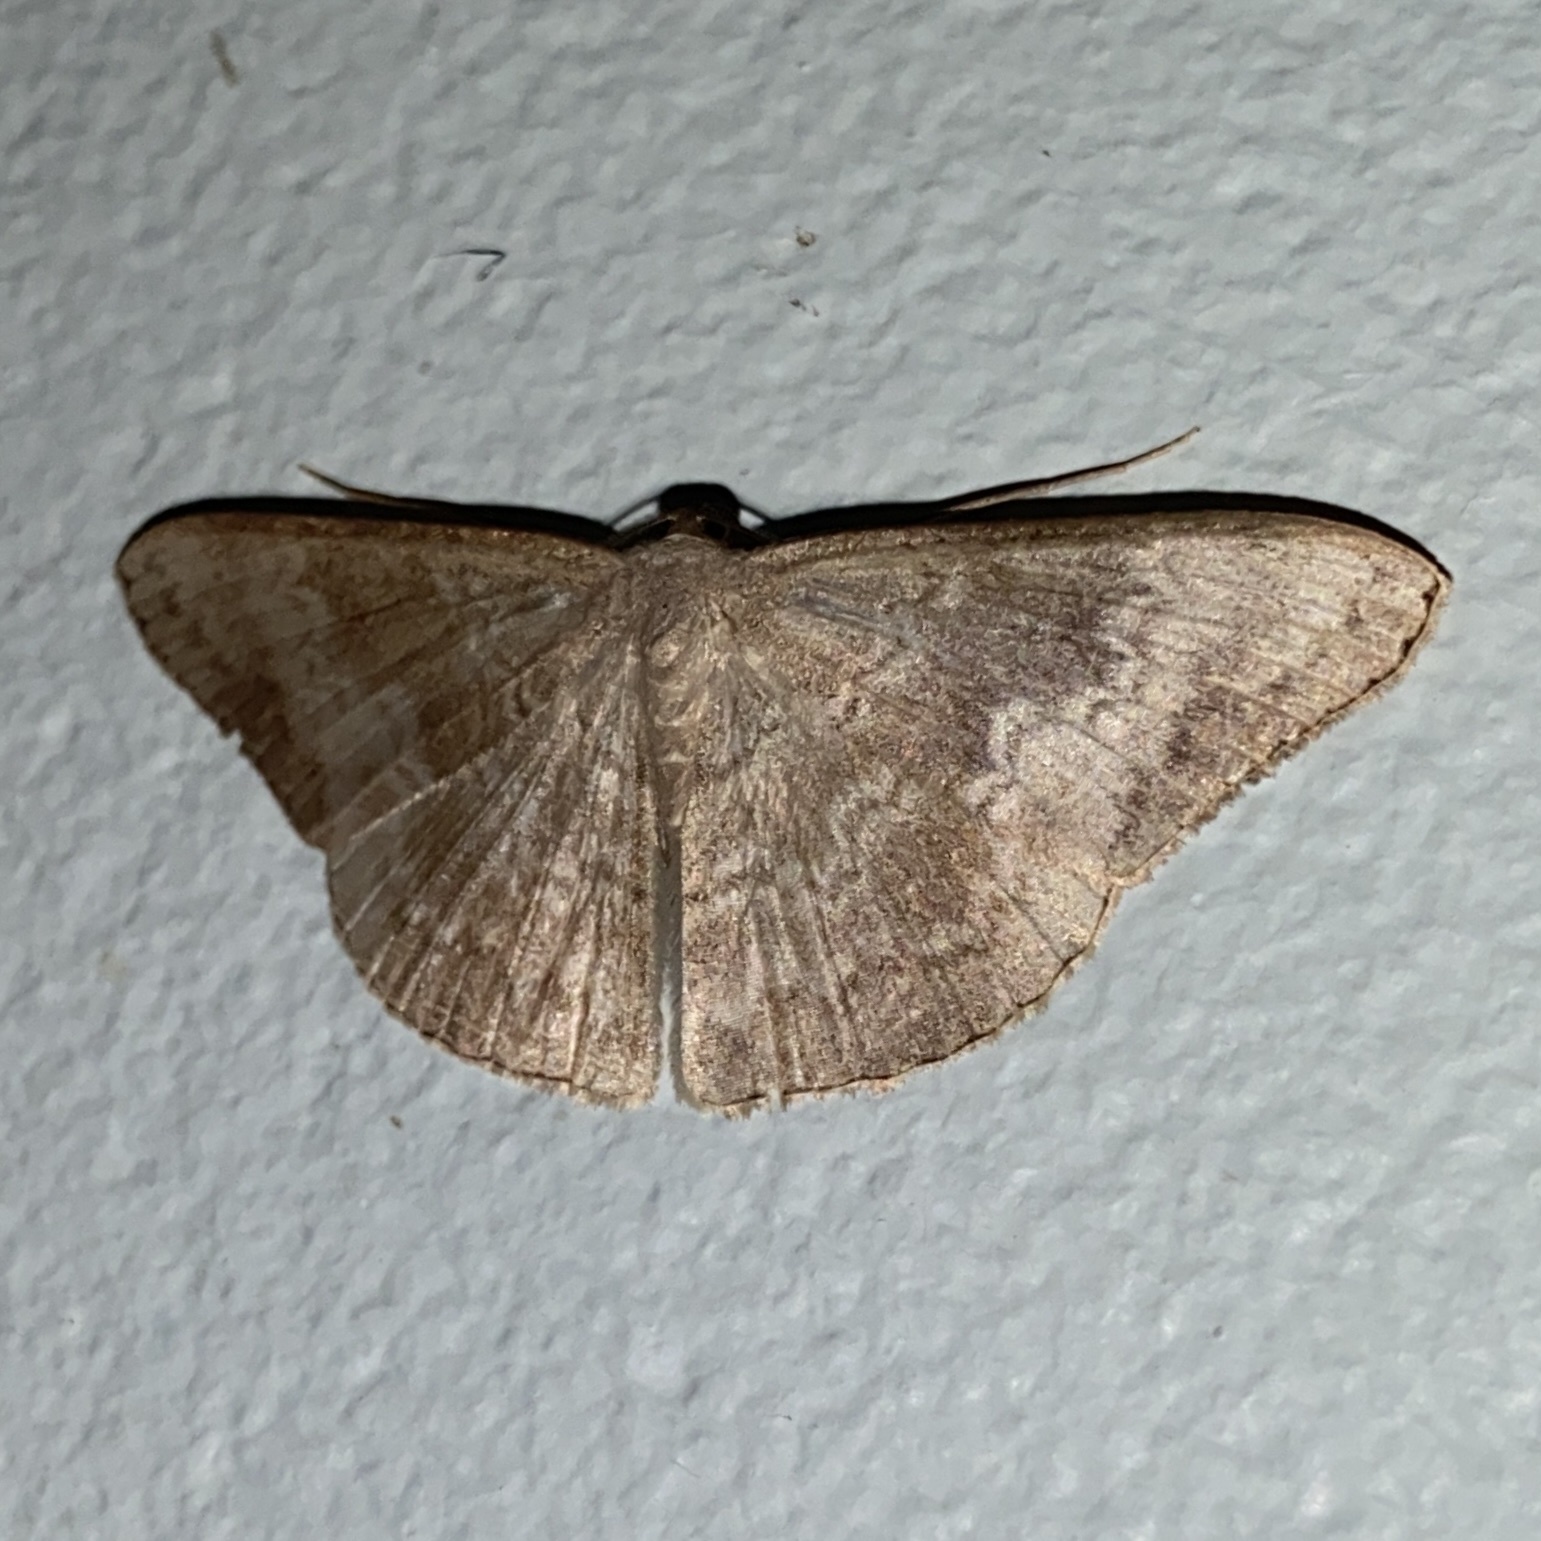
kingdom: Animalia
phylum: Arthropoda
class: Insecta
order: Lepidoptera
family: Geometridae
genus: Pycnoneura
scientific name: Pycnoneura protrusilinea
